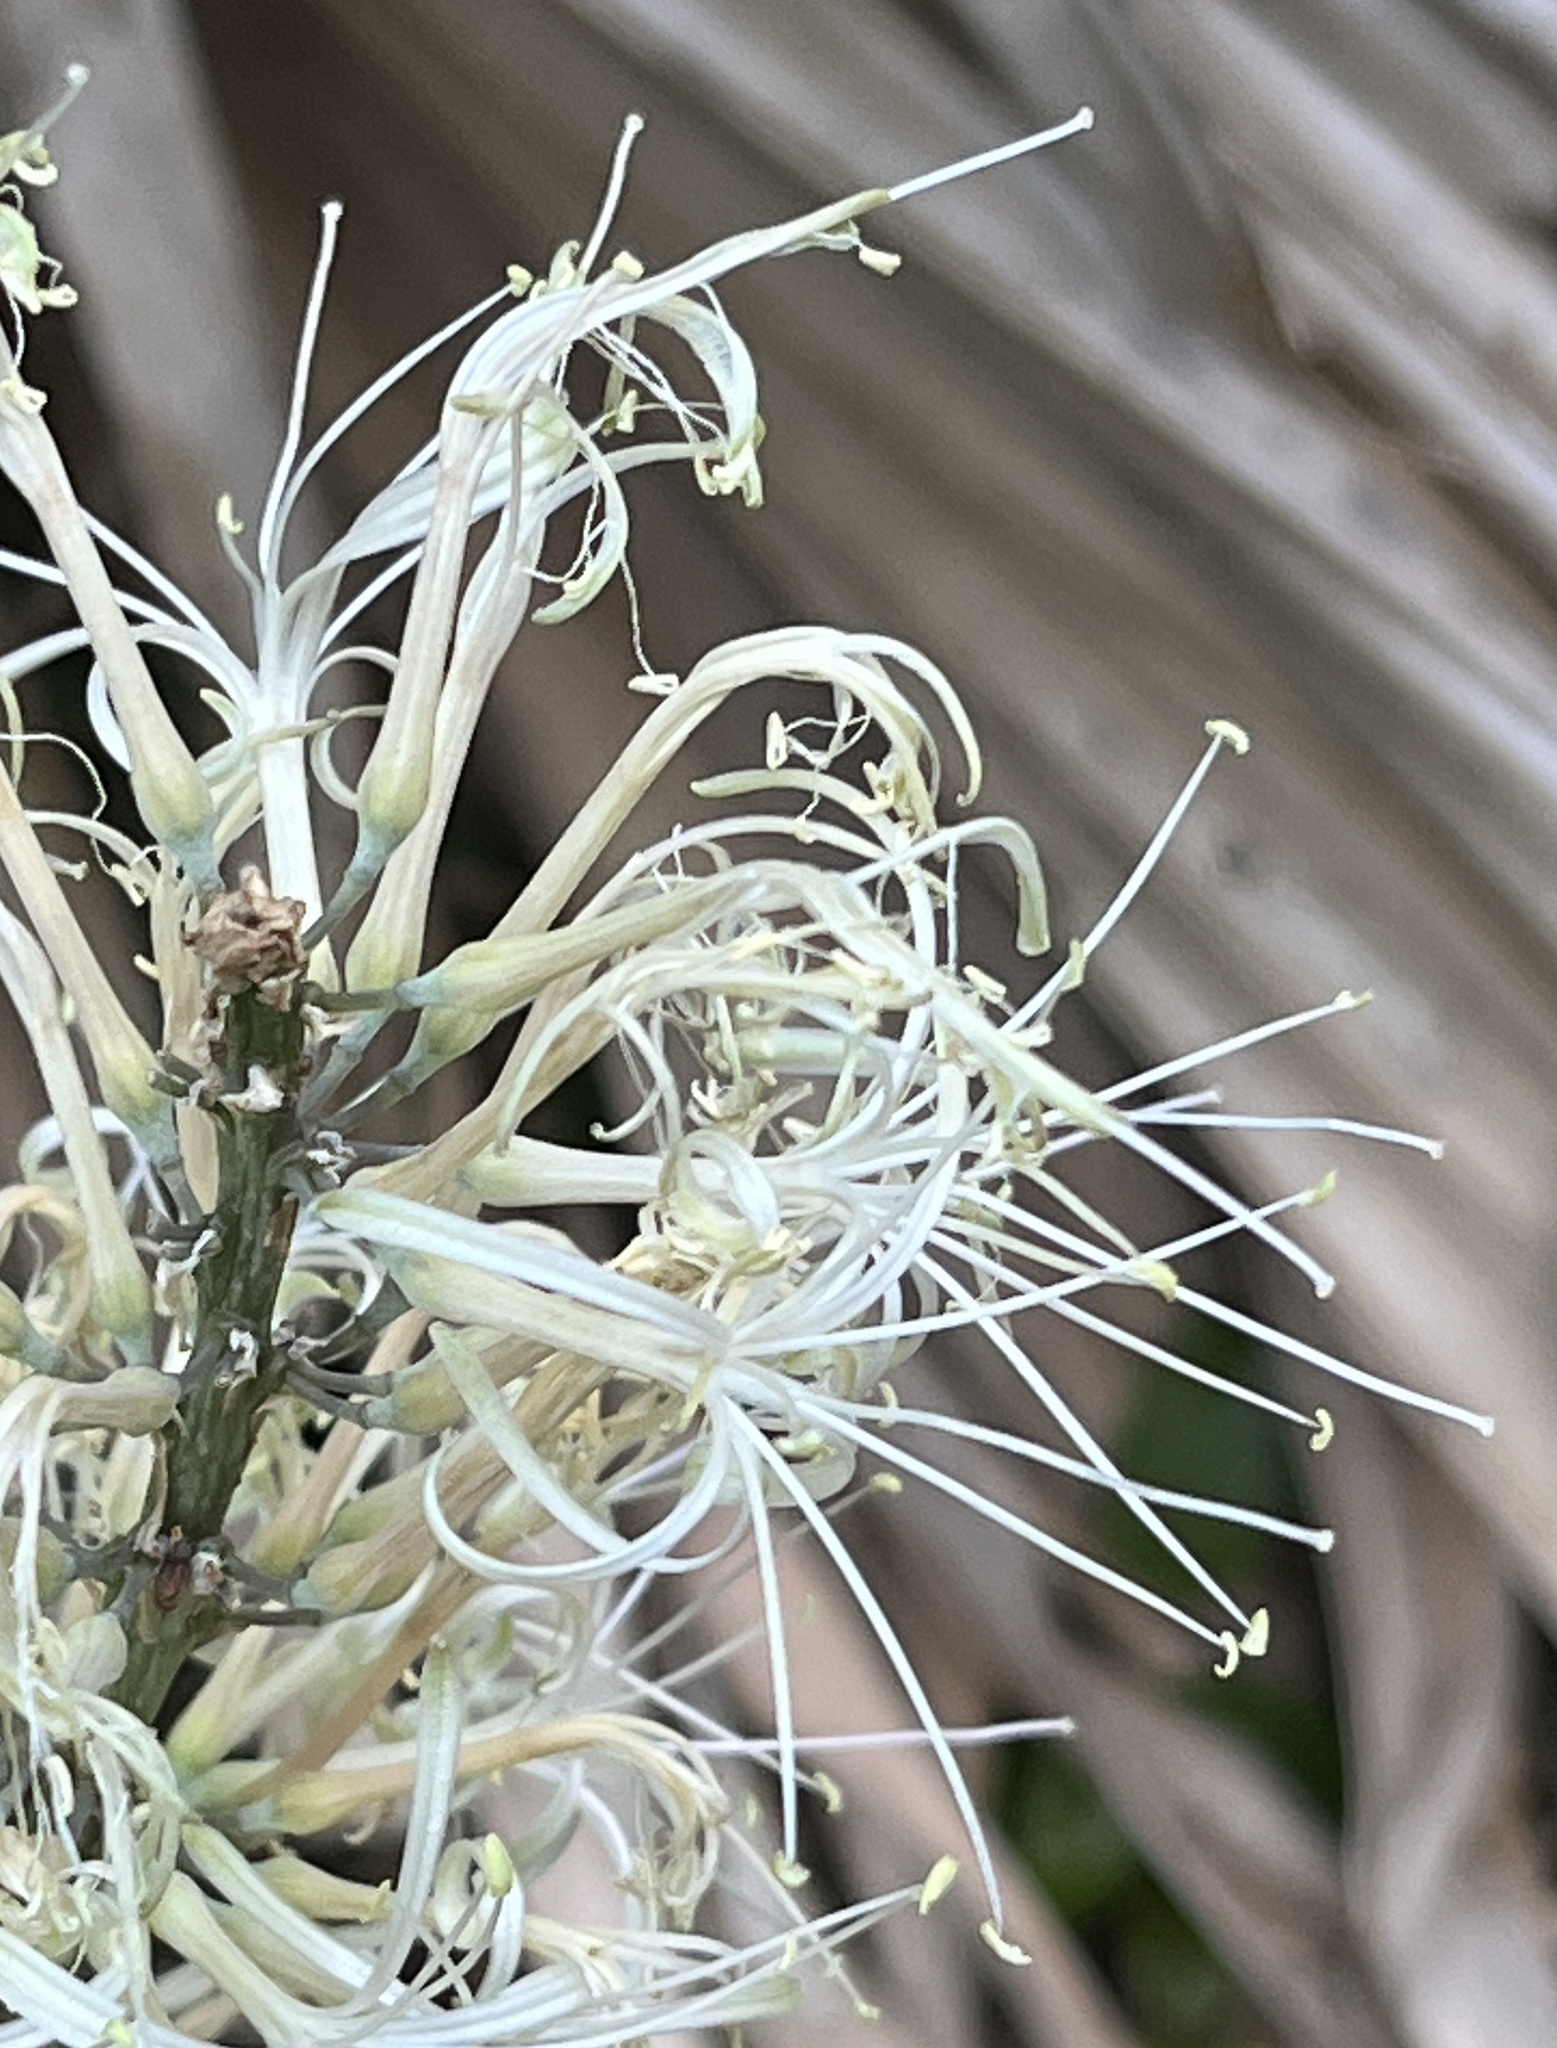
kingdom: Plantae
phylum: Tracheophyta
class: Liliopsida
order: Asparagales
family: Asparagaceae
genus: Dracaena
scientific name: Dracaena hyacinthoides
